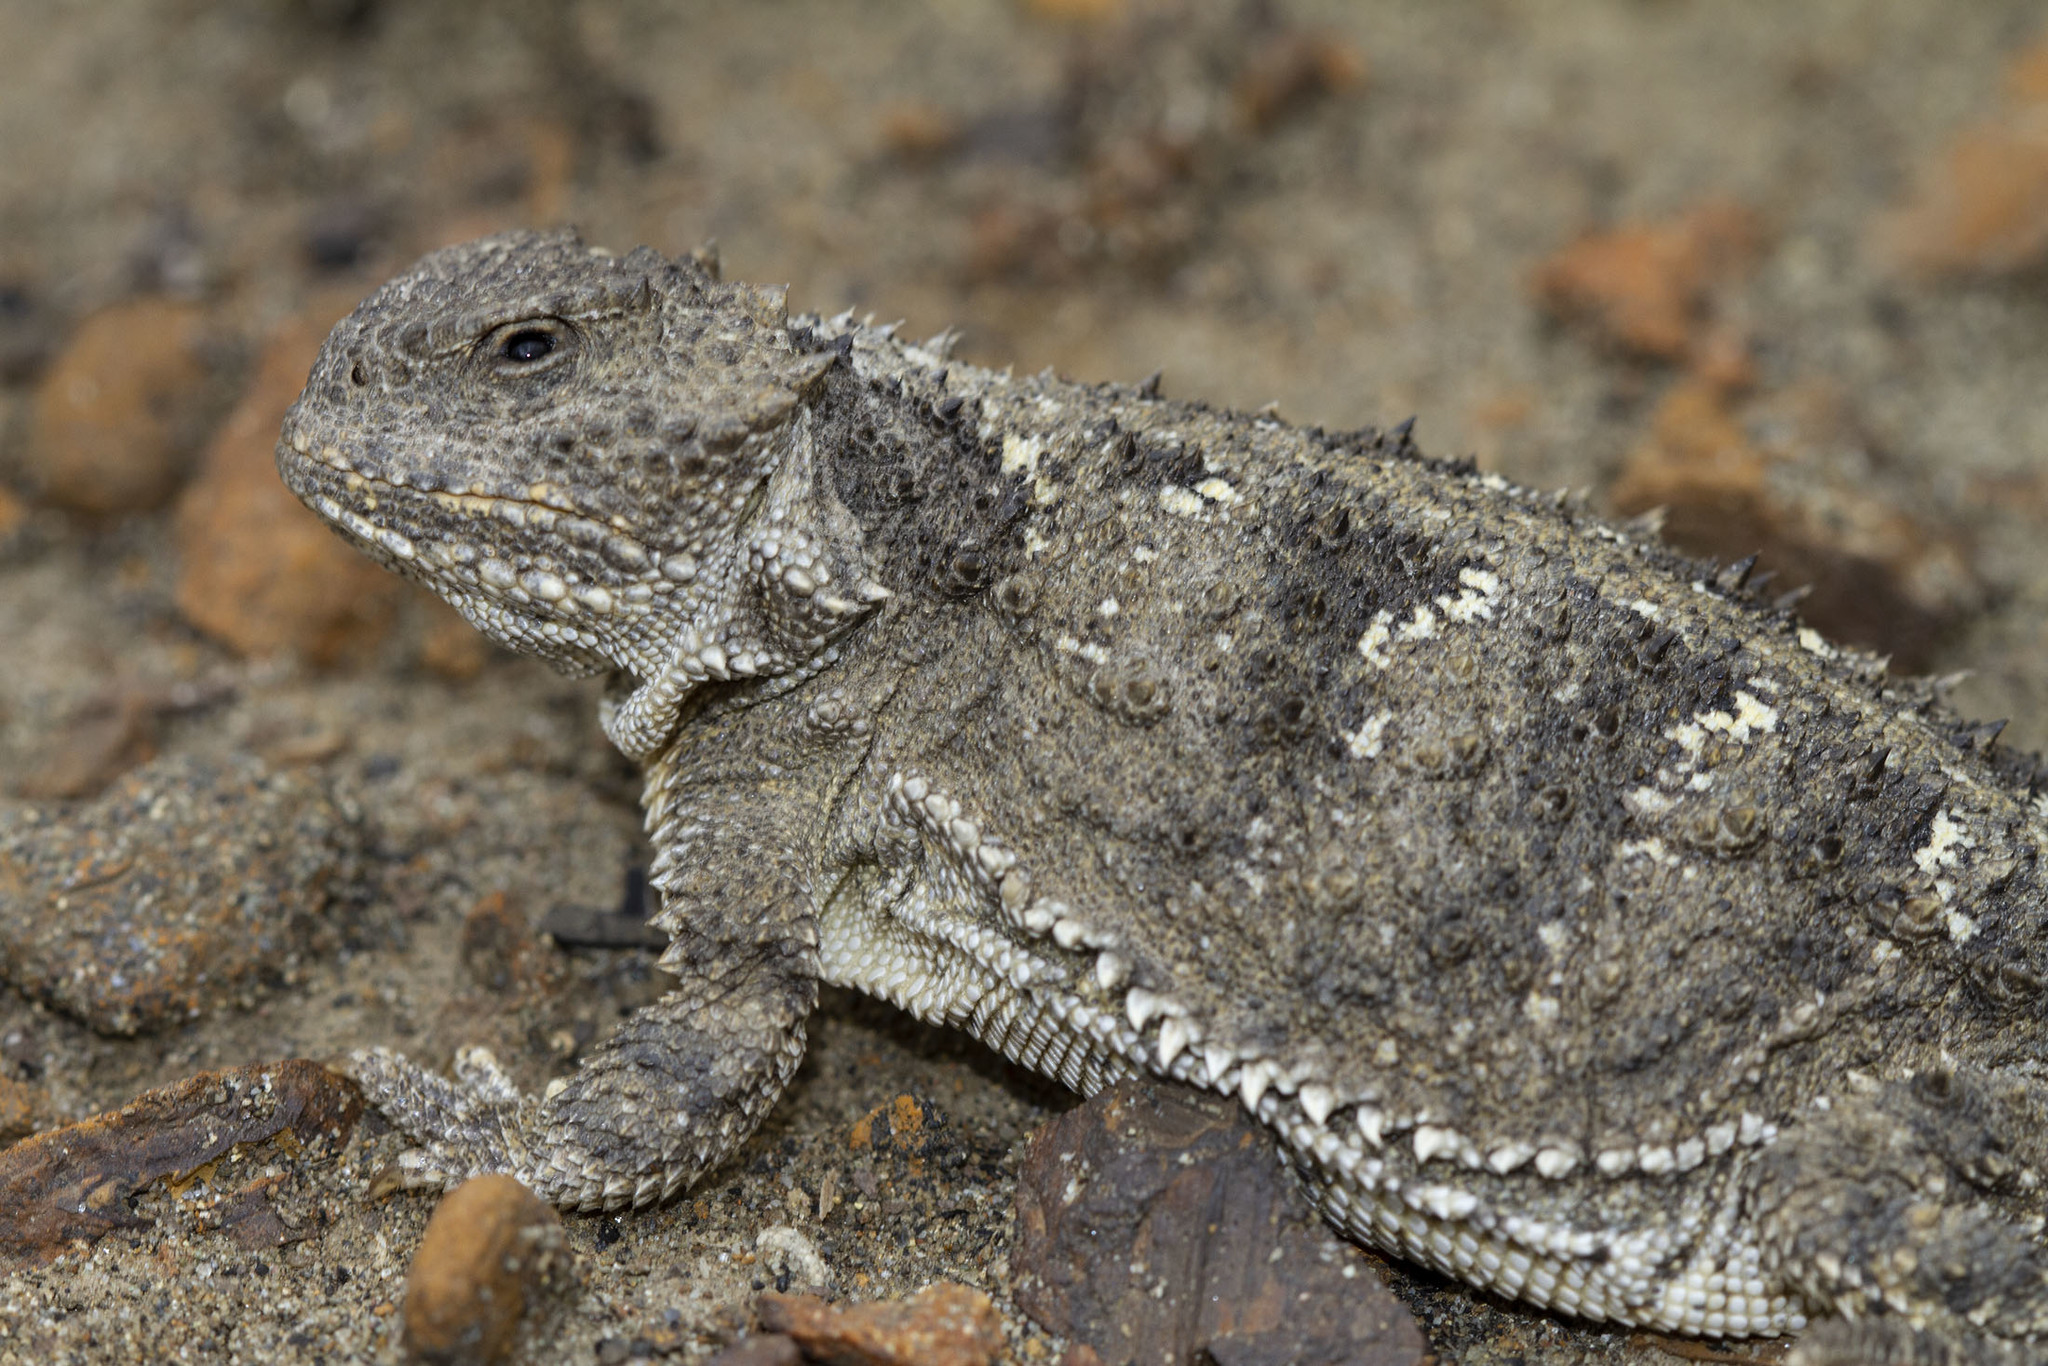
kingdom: Animalia
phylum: Chordata
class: Squamata
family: Phrynosomatidae
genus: Phrynosoma
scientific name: Phrynosoma hernandesi
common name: Greater short-horned lizard
